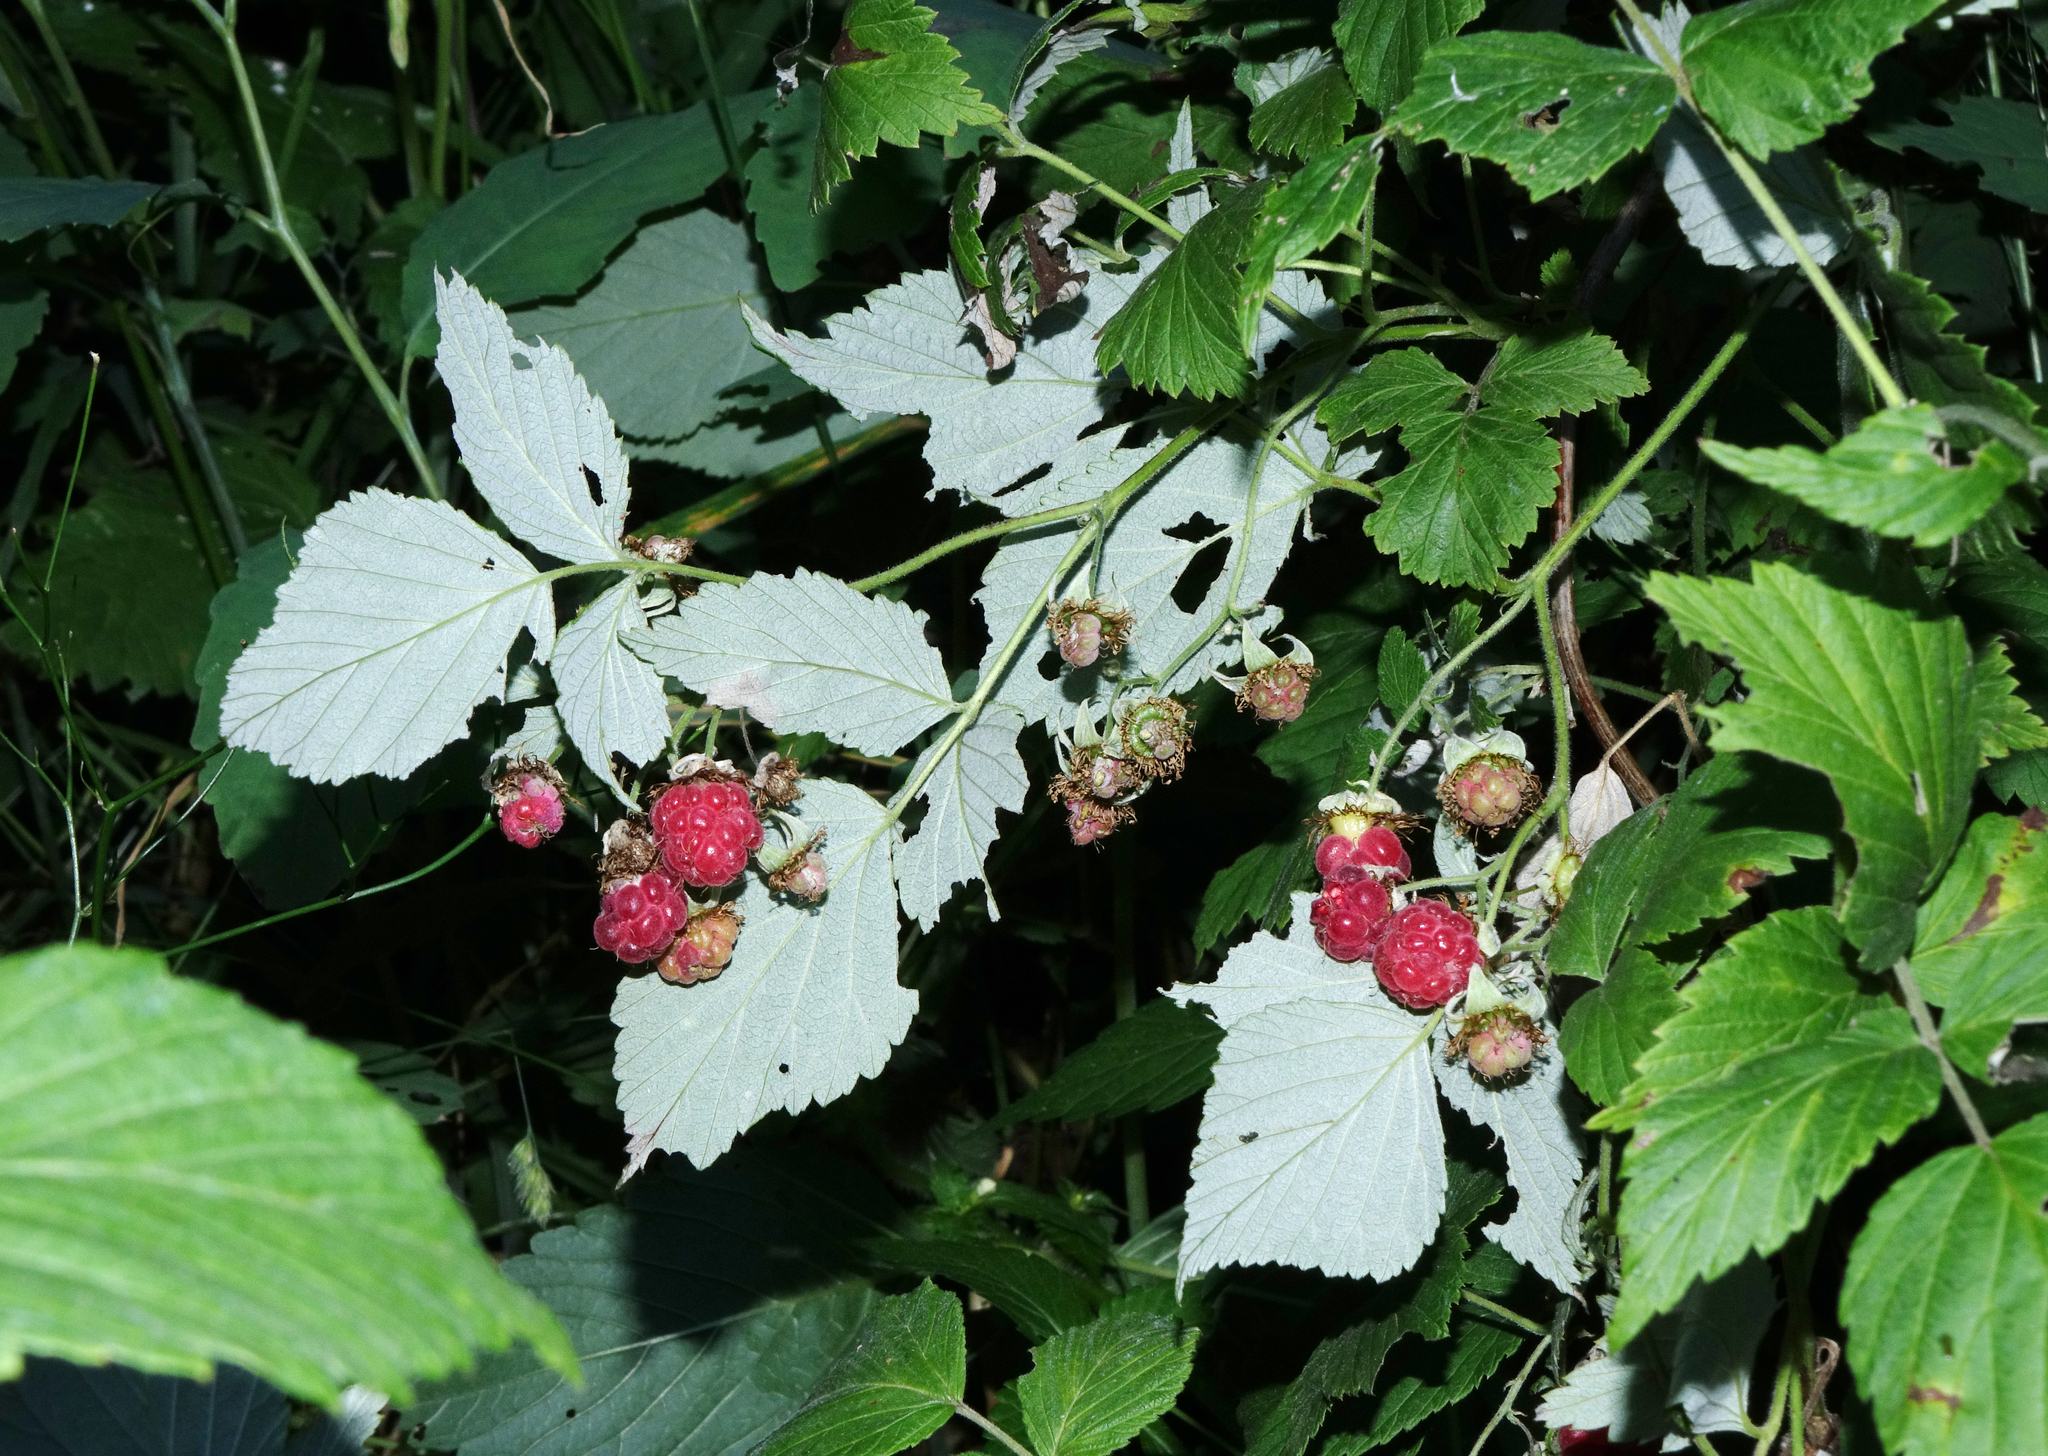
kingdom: Plantae
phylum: Tracheophyta
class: Magnoliopsida
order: Rosales
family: Rosaceae
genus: Rubus
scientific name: Rubus idaeus
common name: Raspberry
